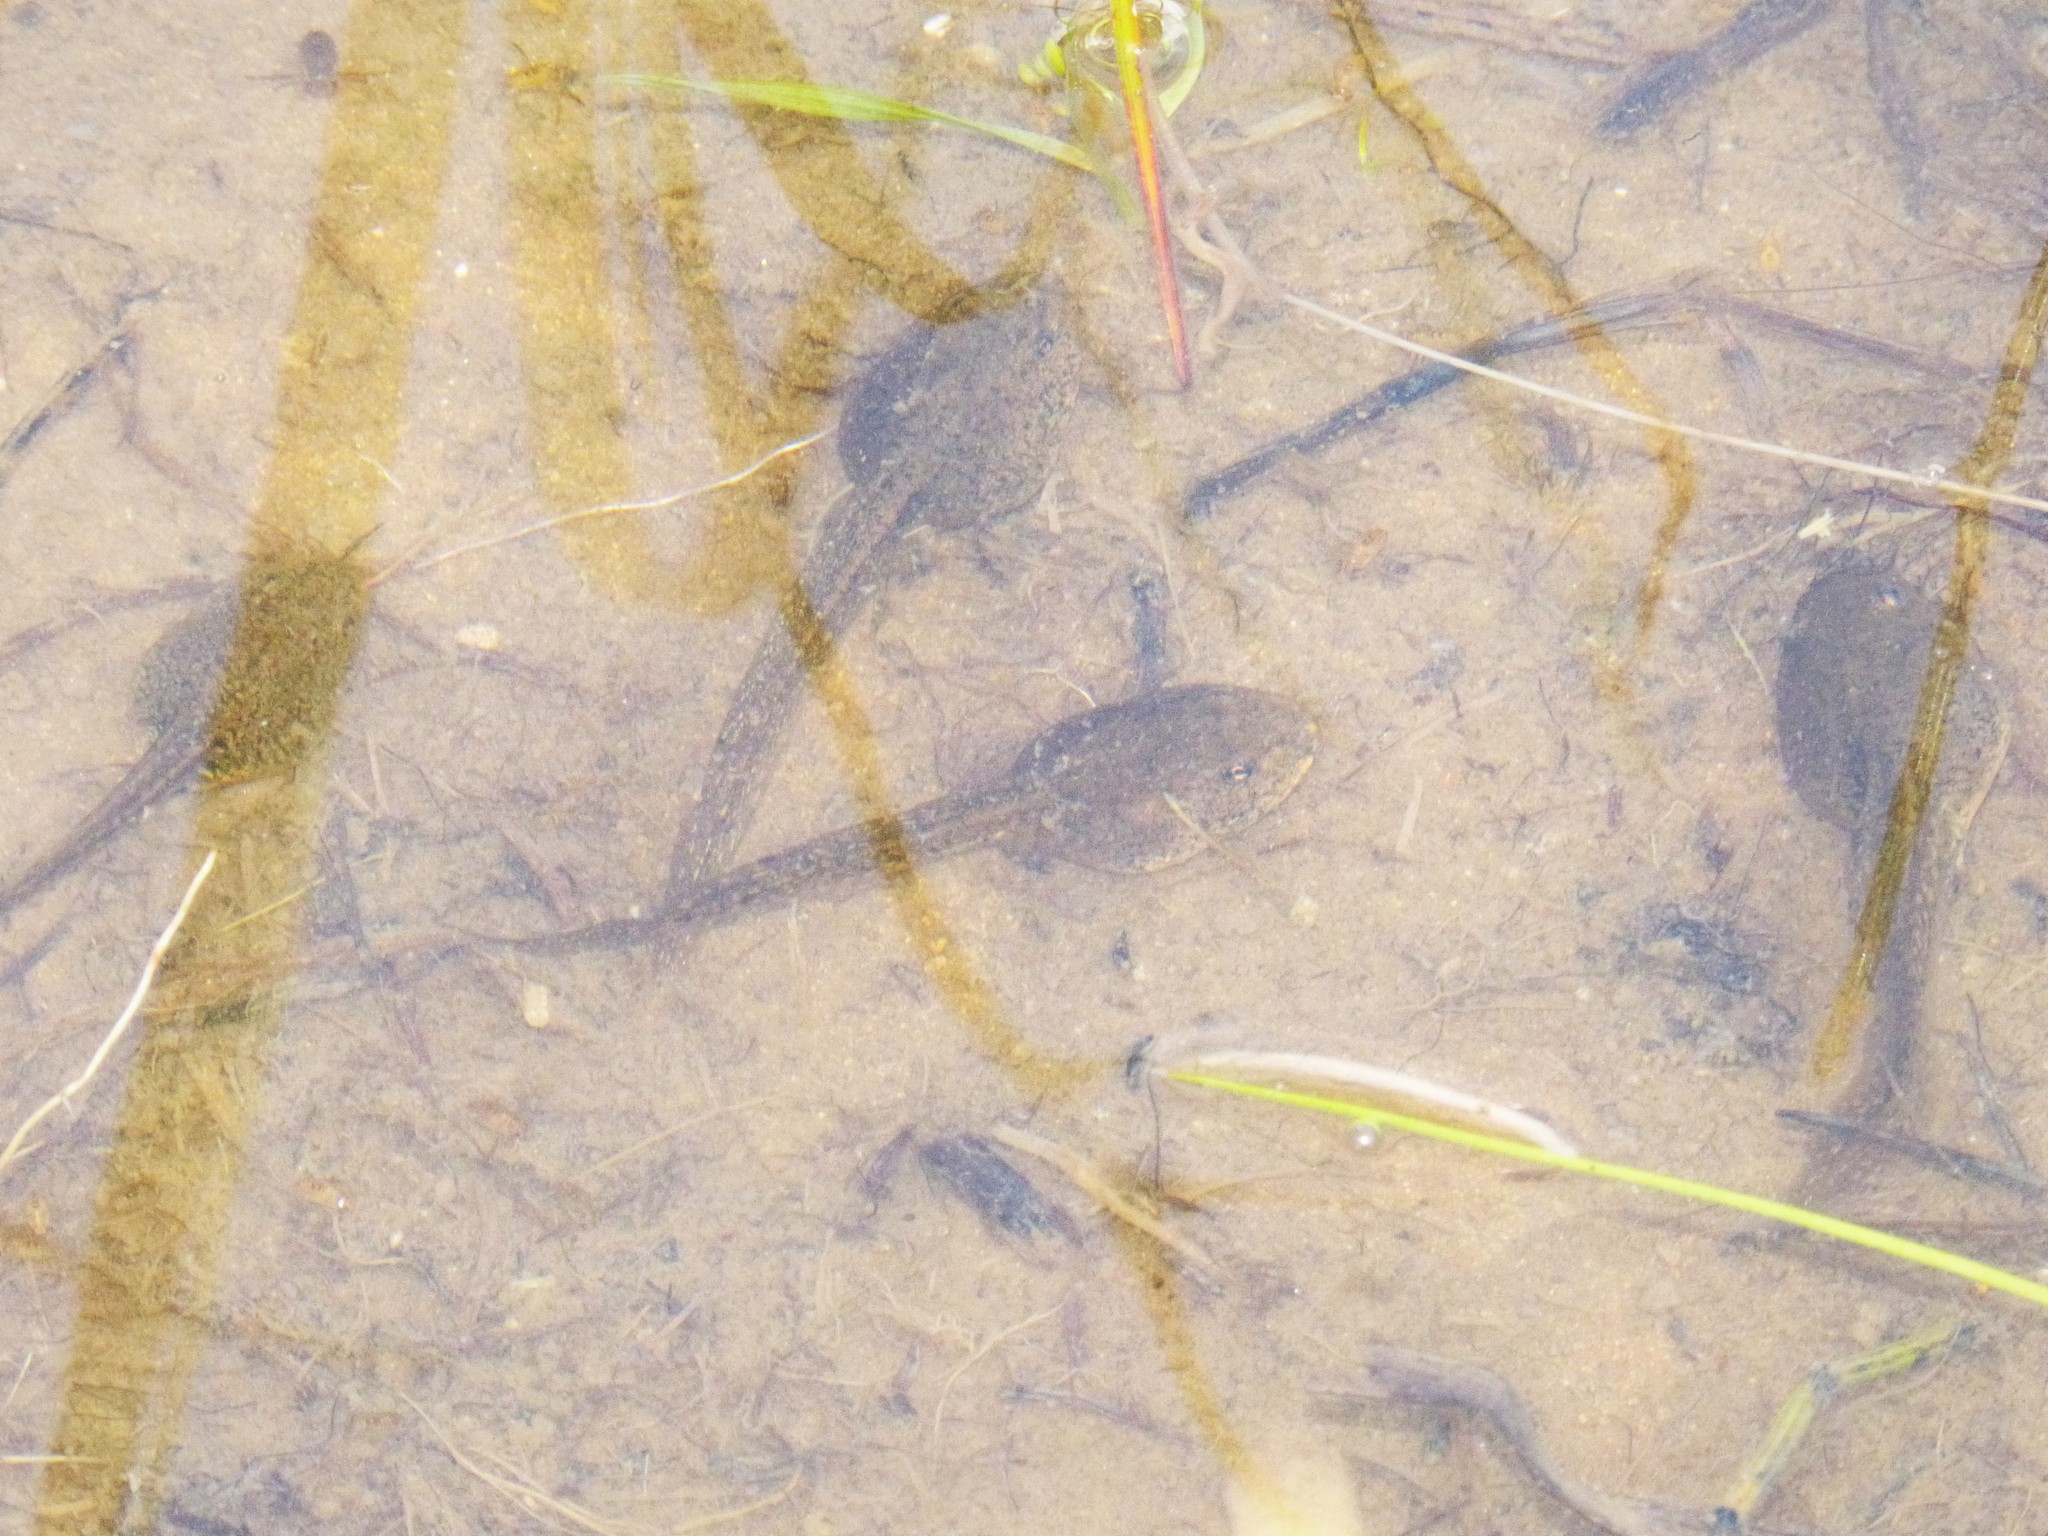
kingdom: Animalia
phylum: Chordata
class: Amphibia
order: Anura
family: Ranidae
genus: Rana
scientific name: Rana temporaria
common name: Common frog
